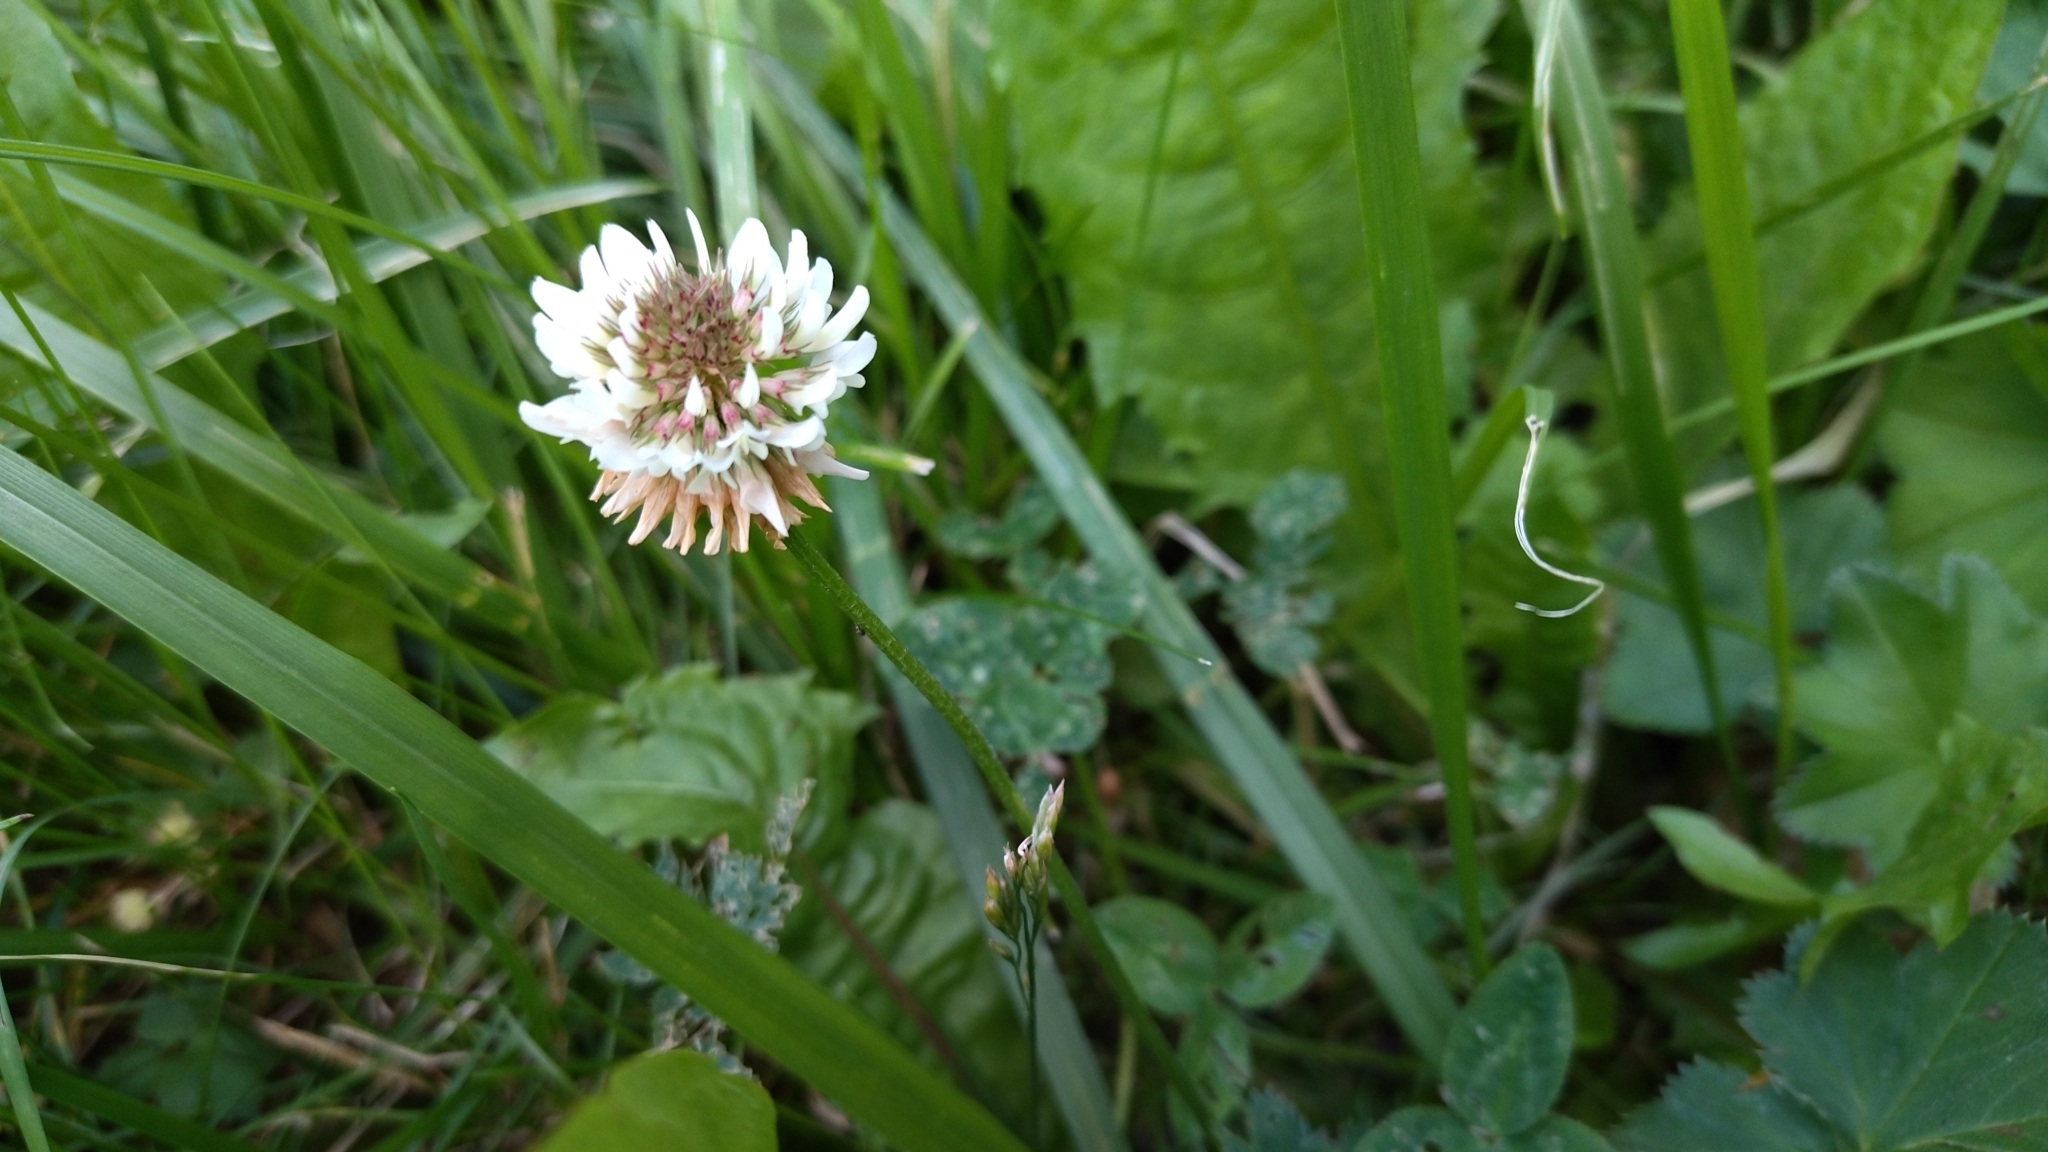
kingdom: Plantae
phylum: Tracheophyta
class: Magnoliopsida
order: Fabales
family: Fabaceae
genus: Trifolium
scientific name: Trifolium repens
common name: White clover
